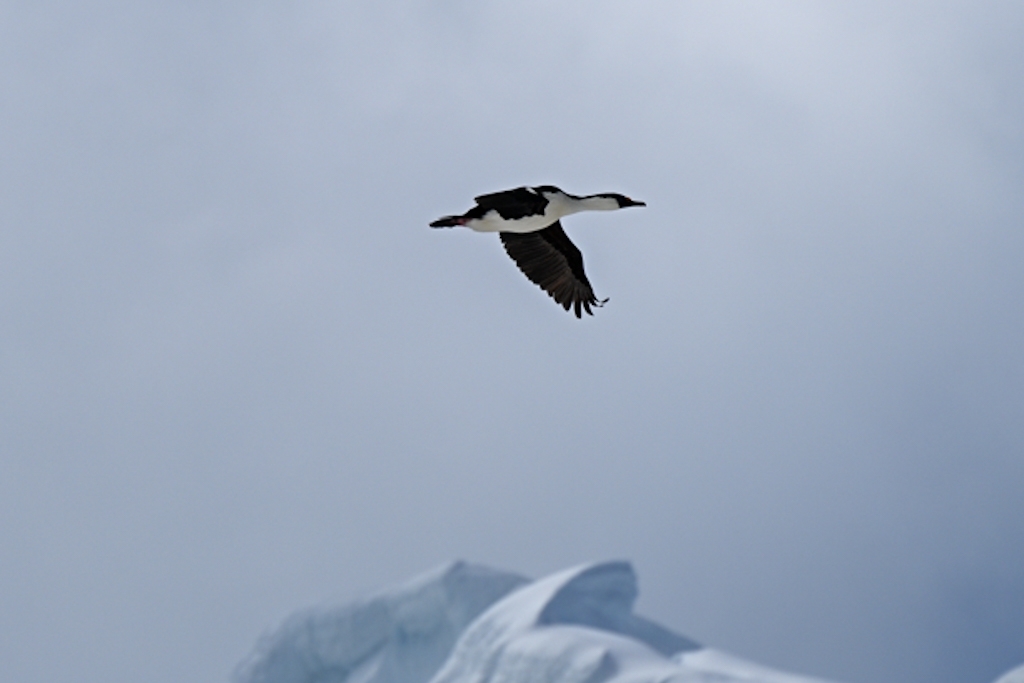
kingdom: Animalia
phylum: Chordata
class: Aves
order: Suliformes
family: Phalacrocoracidae
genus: Leucocarbo
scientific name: Leucocarbo atriceps
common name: Imperial shag
